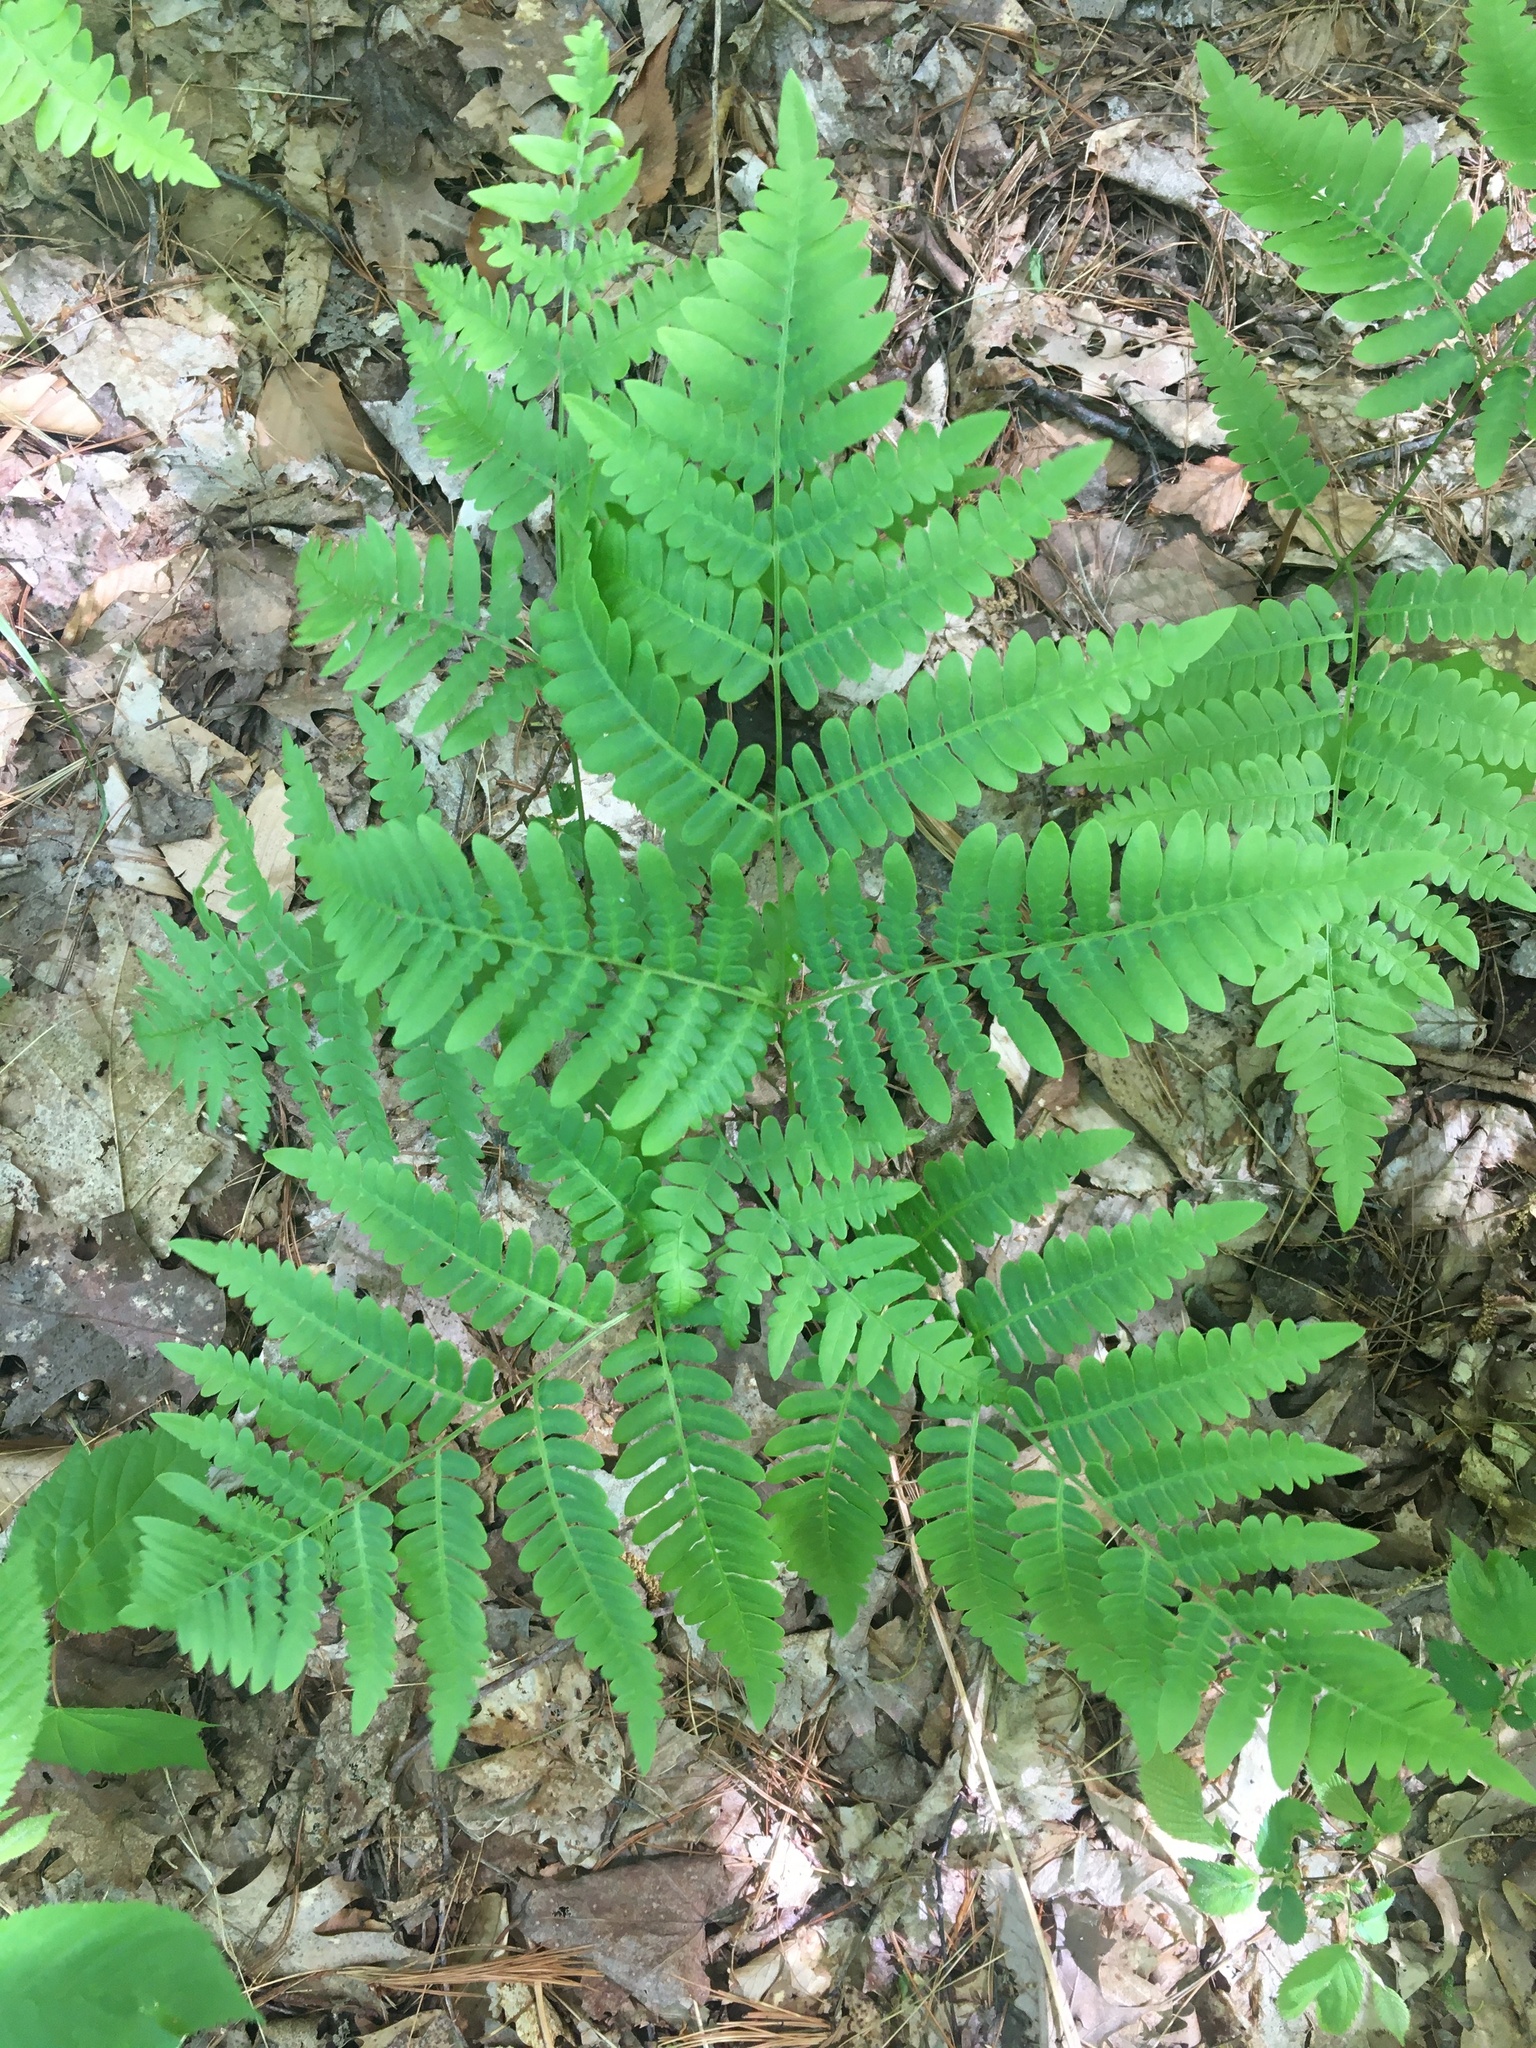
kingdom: Plantae
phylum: Tracheophyta
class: Polypodiopsida
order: Polypodiales
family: Dryopteridaceae
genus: Dryopteris
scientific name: Dryopteris marginalis
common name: Marginal wood fern
